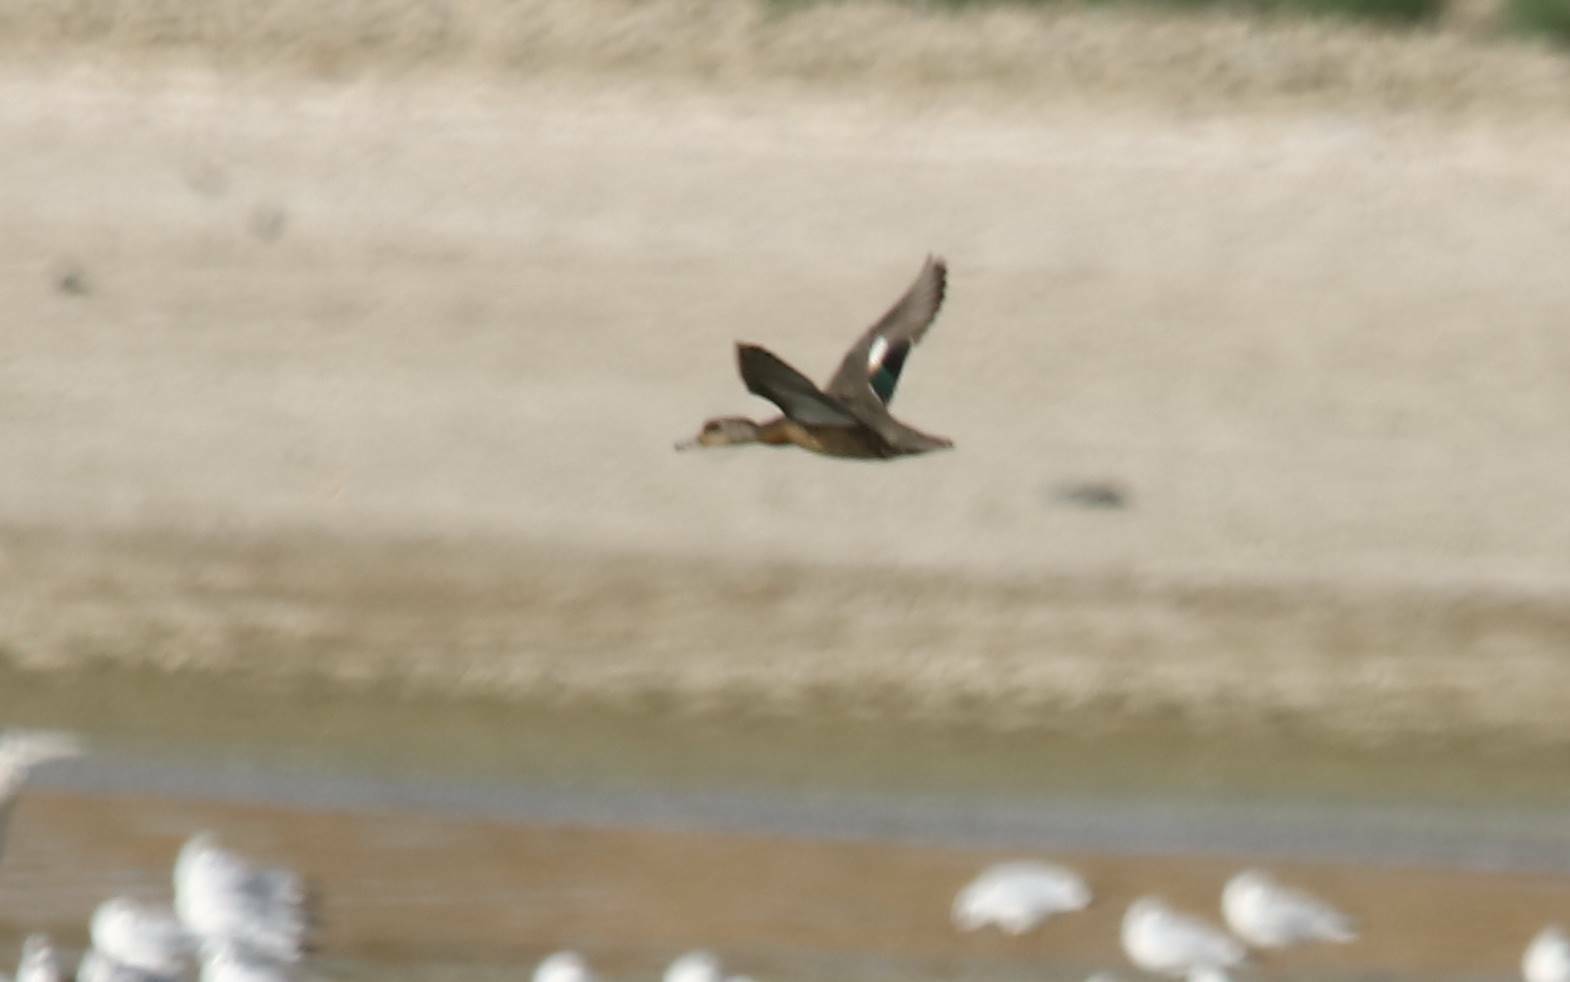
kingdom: Animalia
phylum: Chordata
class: Aves
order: Anseriformes
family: Anatidae
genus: Anas
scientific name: Anas crecca
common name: Eurasian teal
